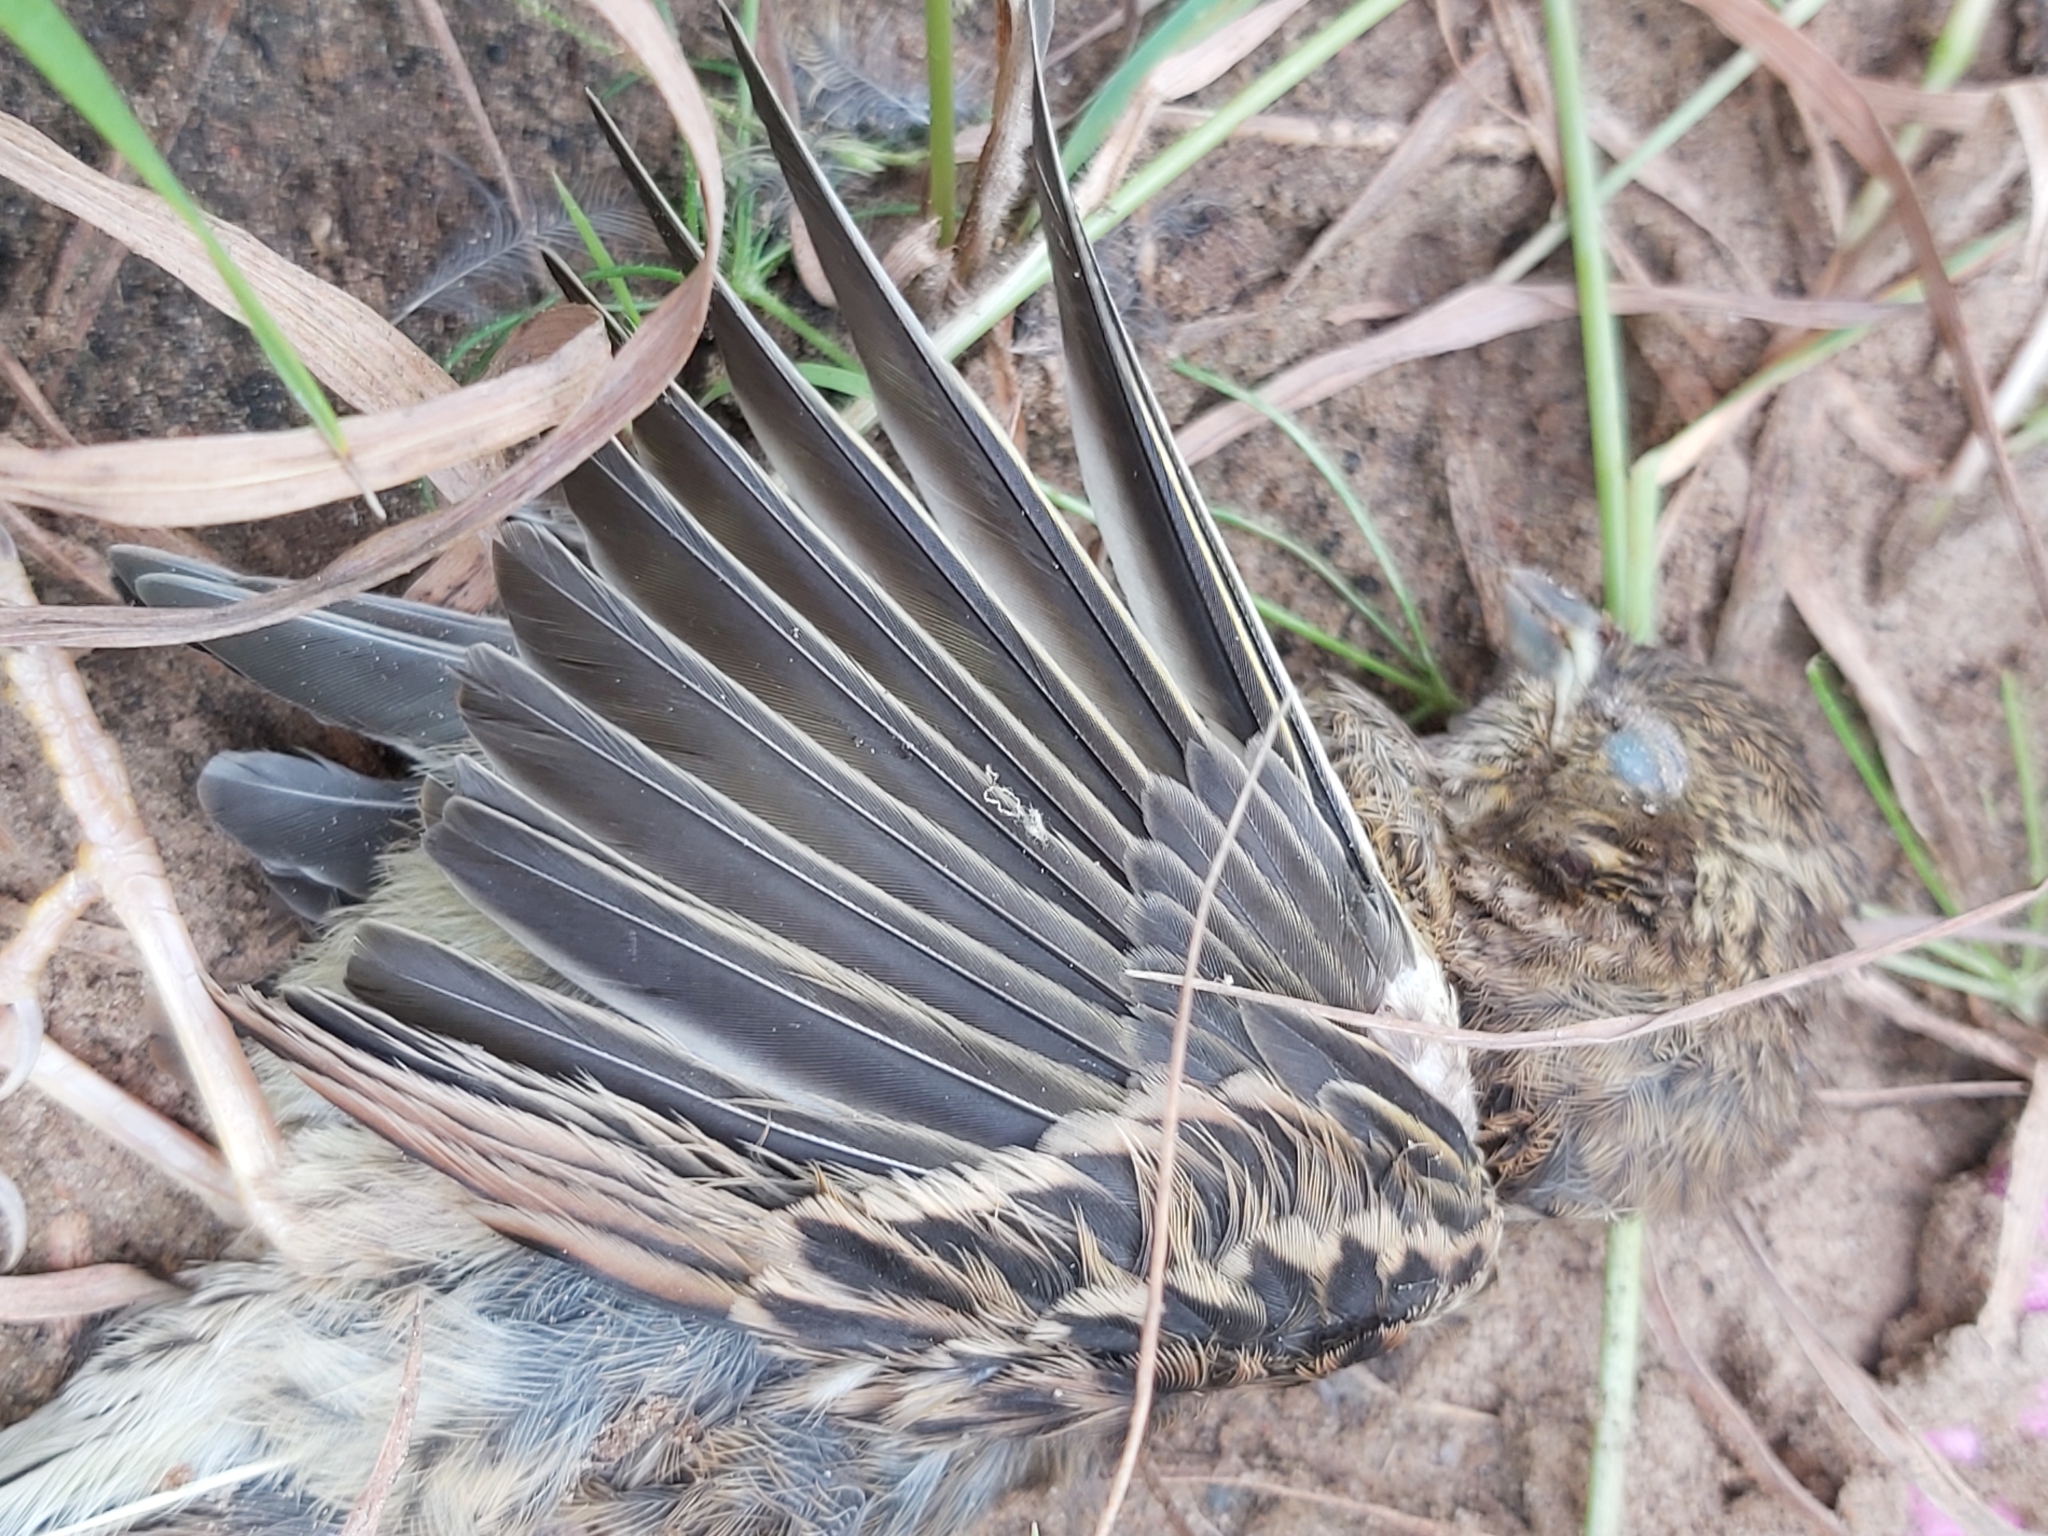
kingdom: Animalia
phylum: Chordata
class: Aves
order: Passeriformes
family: Emberizidae
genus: Emberiza
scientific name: Emberiza citrinella
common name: Yellowhammer
